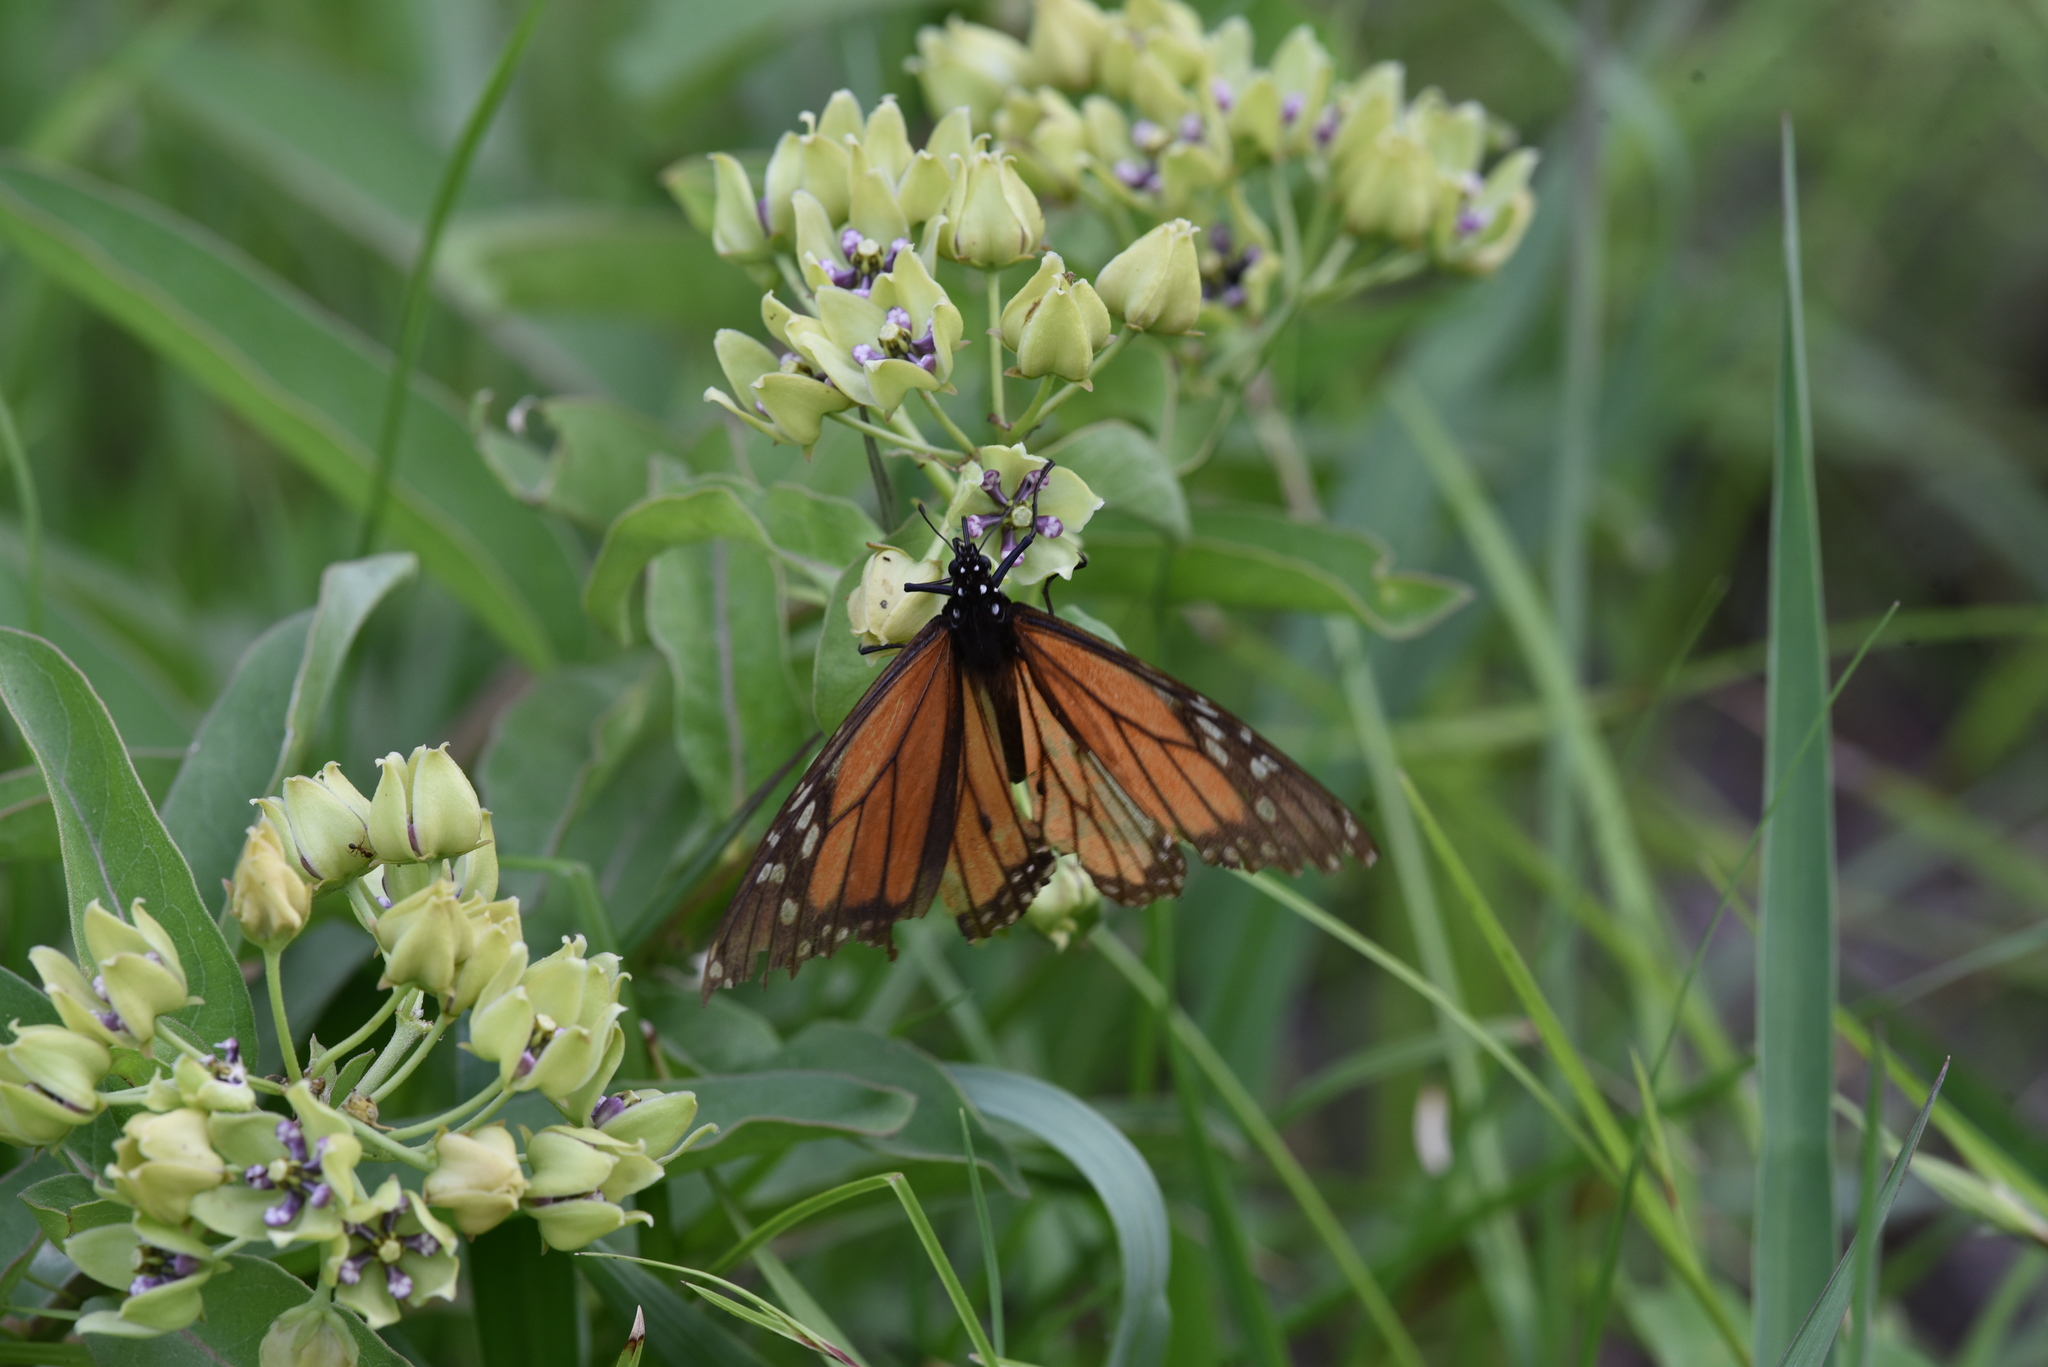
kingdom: Animalia
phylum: Arthropoda
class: Insecta
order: Lepidoptera
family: Nymphalidae
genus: Danaus
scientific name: Danaus plexippus
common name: Monarch
